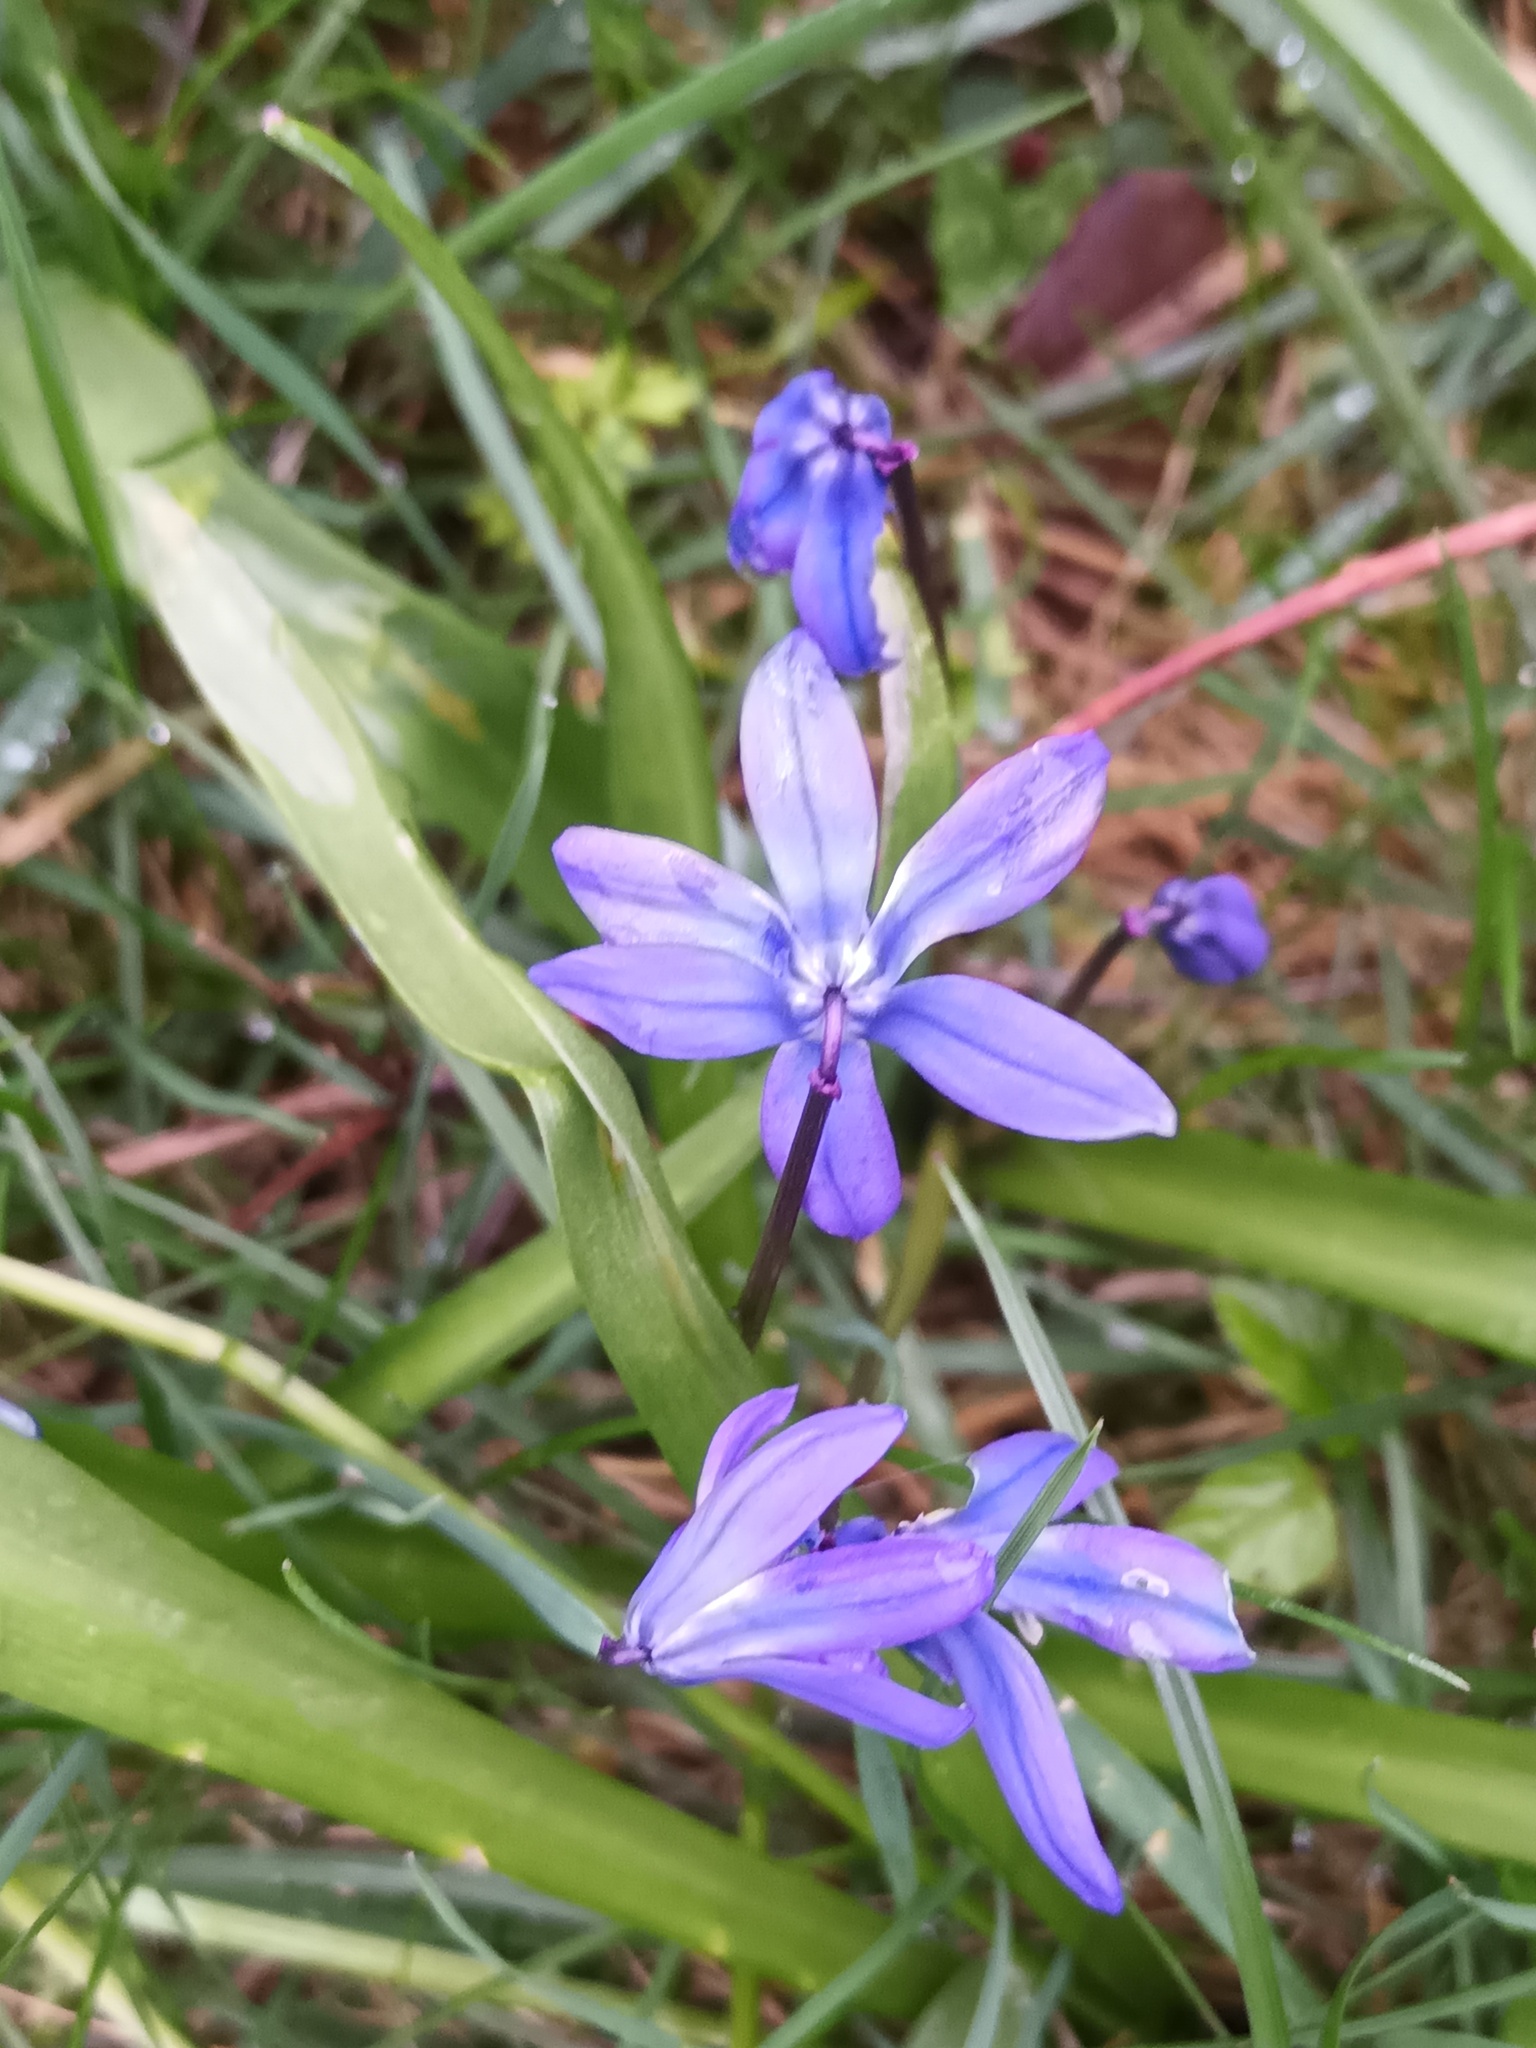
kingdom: Plantae
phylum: Tracheophyta
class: Liliopsida
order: Asparagales
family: Asparagaceae
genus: Scilla
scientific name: Scilla siberica
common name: Siberian squill
